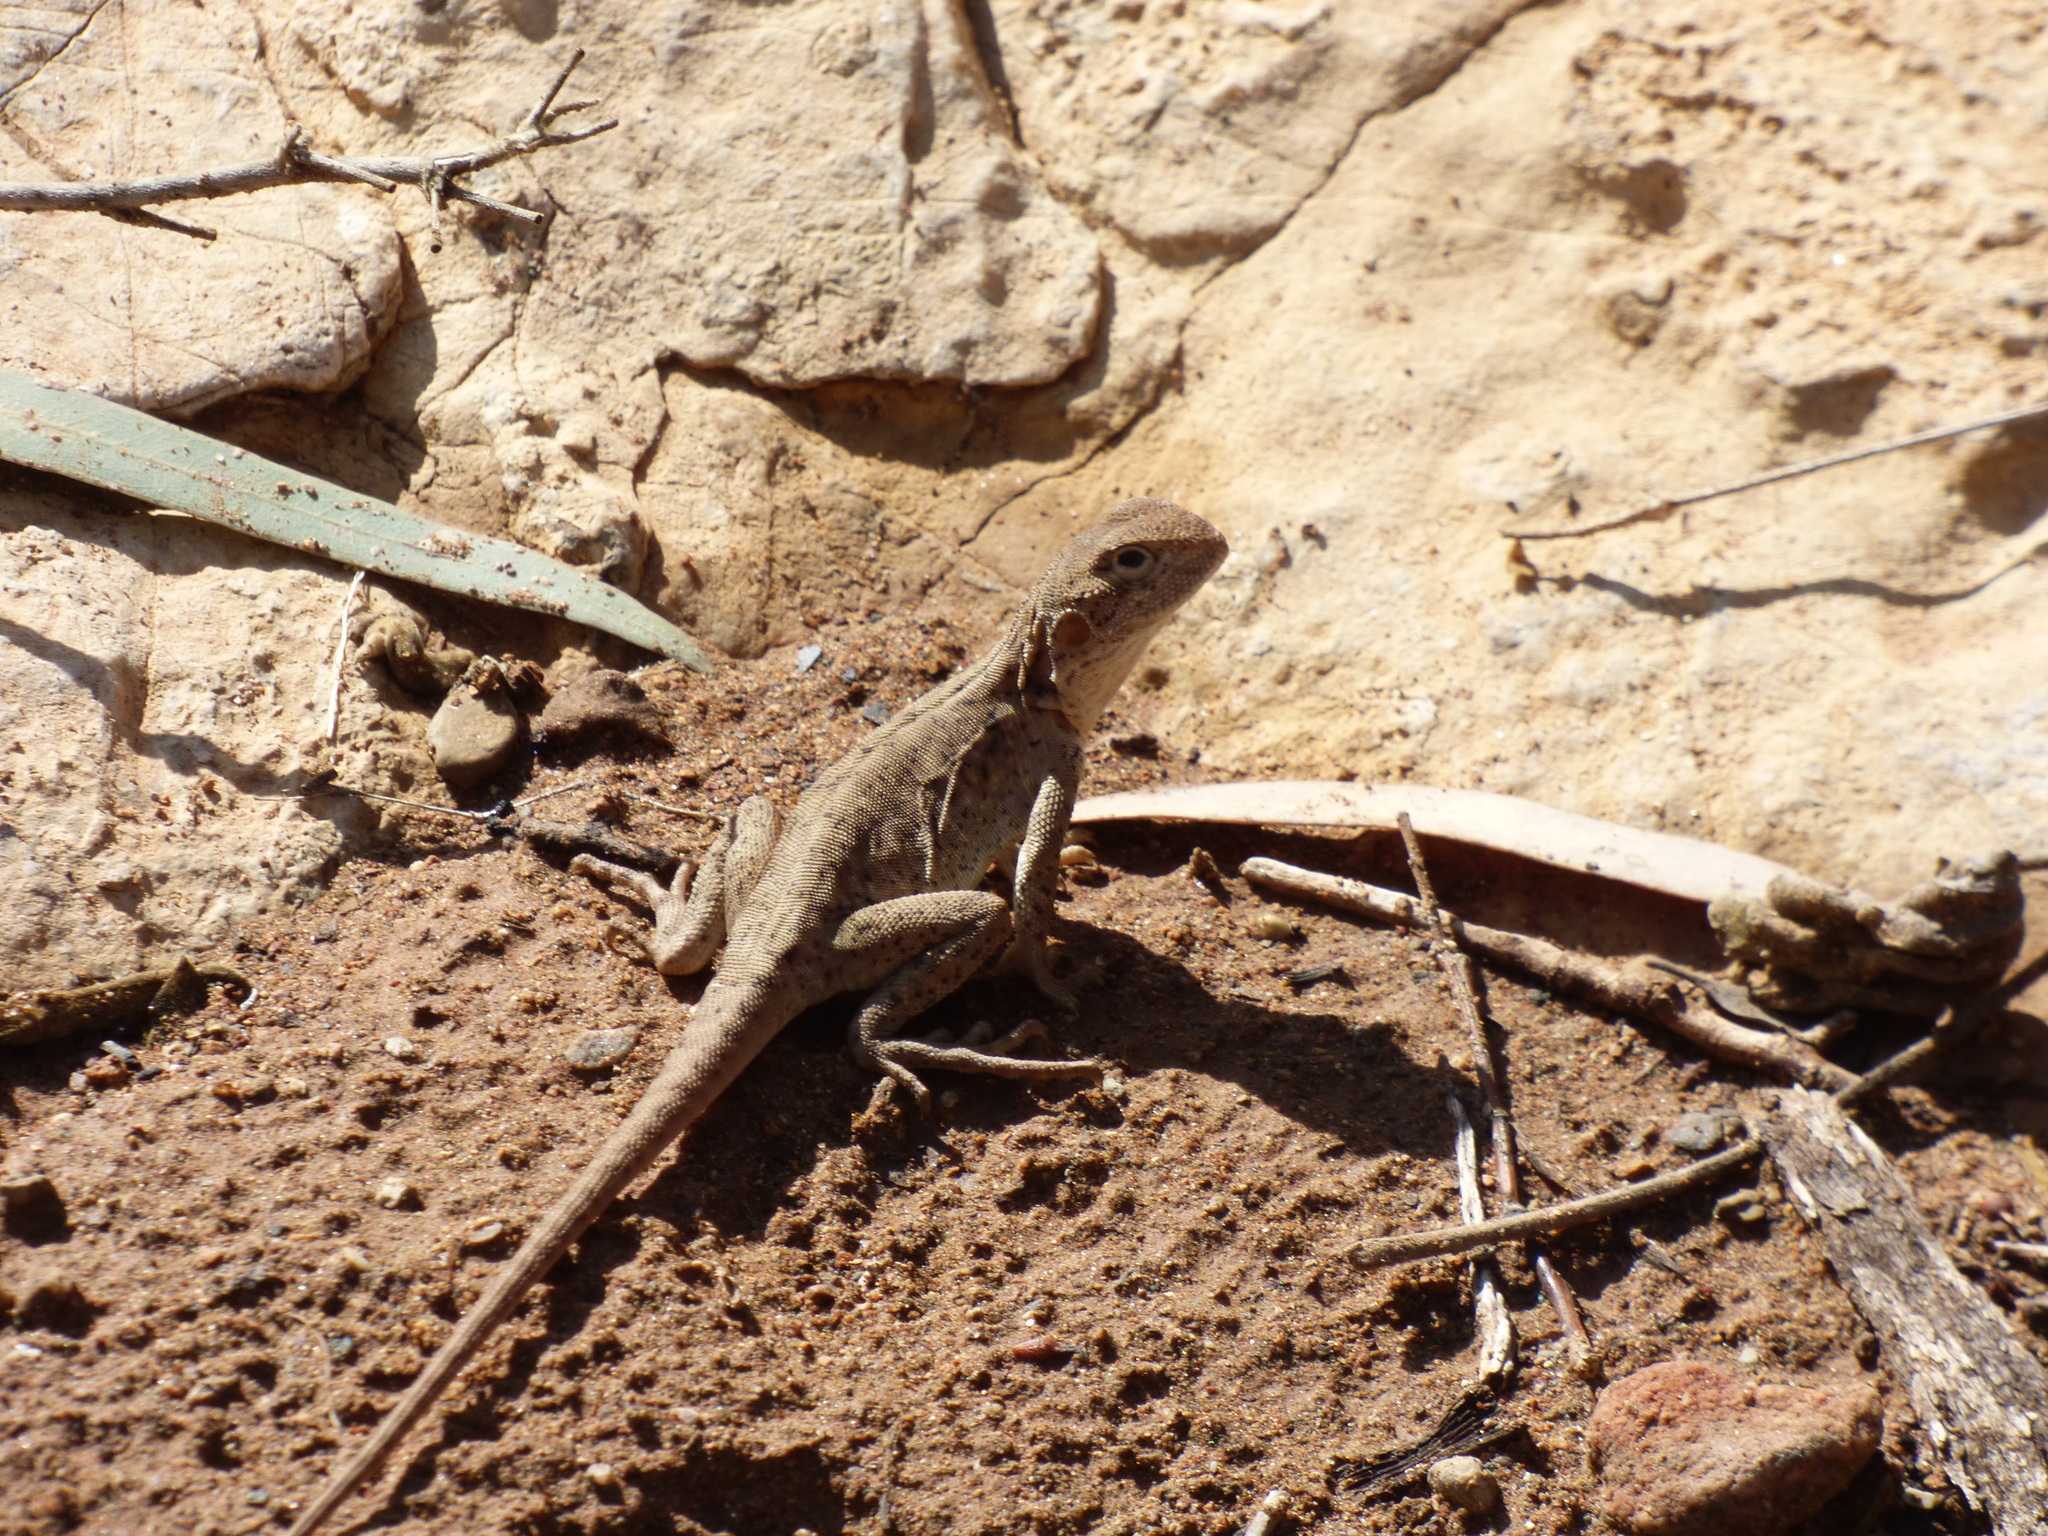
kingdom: Animalia
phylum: Chordata
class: Squamata
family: Agamidae
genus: Ctenophorus
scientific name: Ctenophorus vadnappa
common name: Red-barred crevice-dragon
